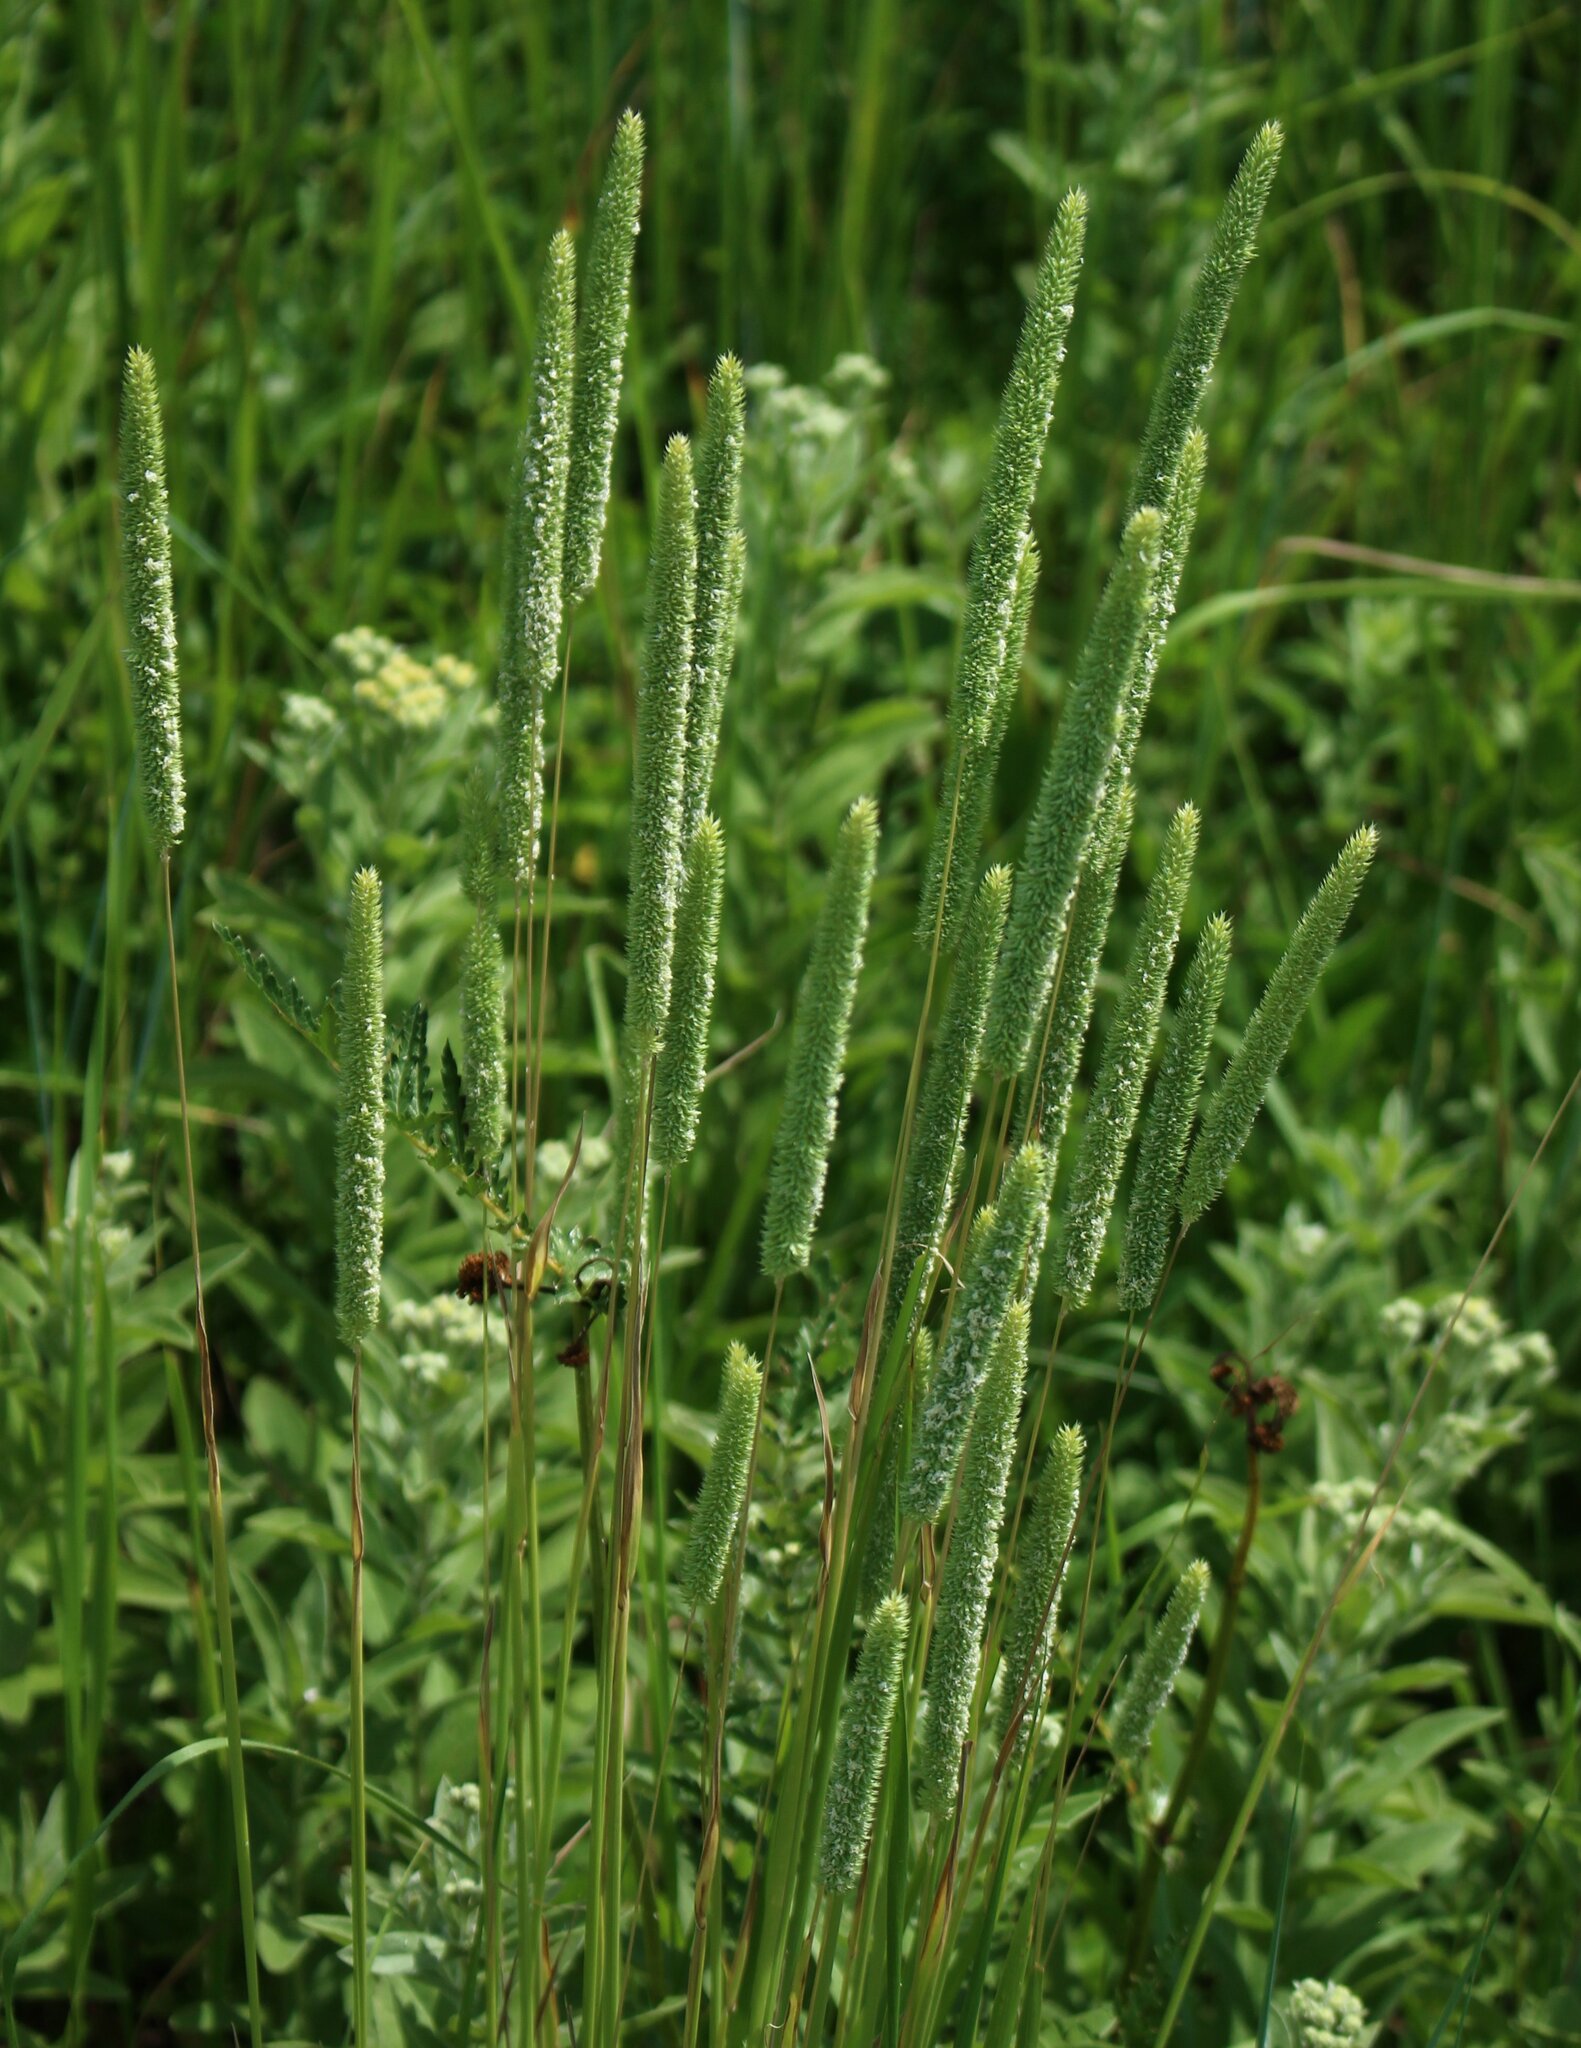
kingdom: Plantae
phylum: Tracheophyta
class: Liliopsida
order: Poales
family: Poaceae
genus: Phleum
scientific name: Phleum phleoides
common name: Purple-stem cat's-tail
